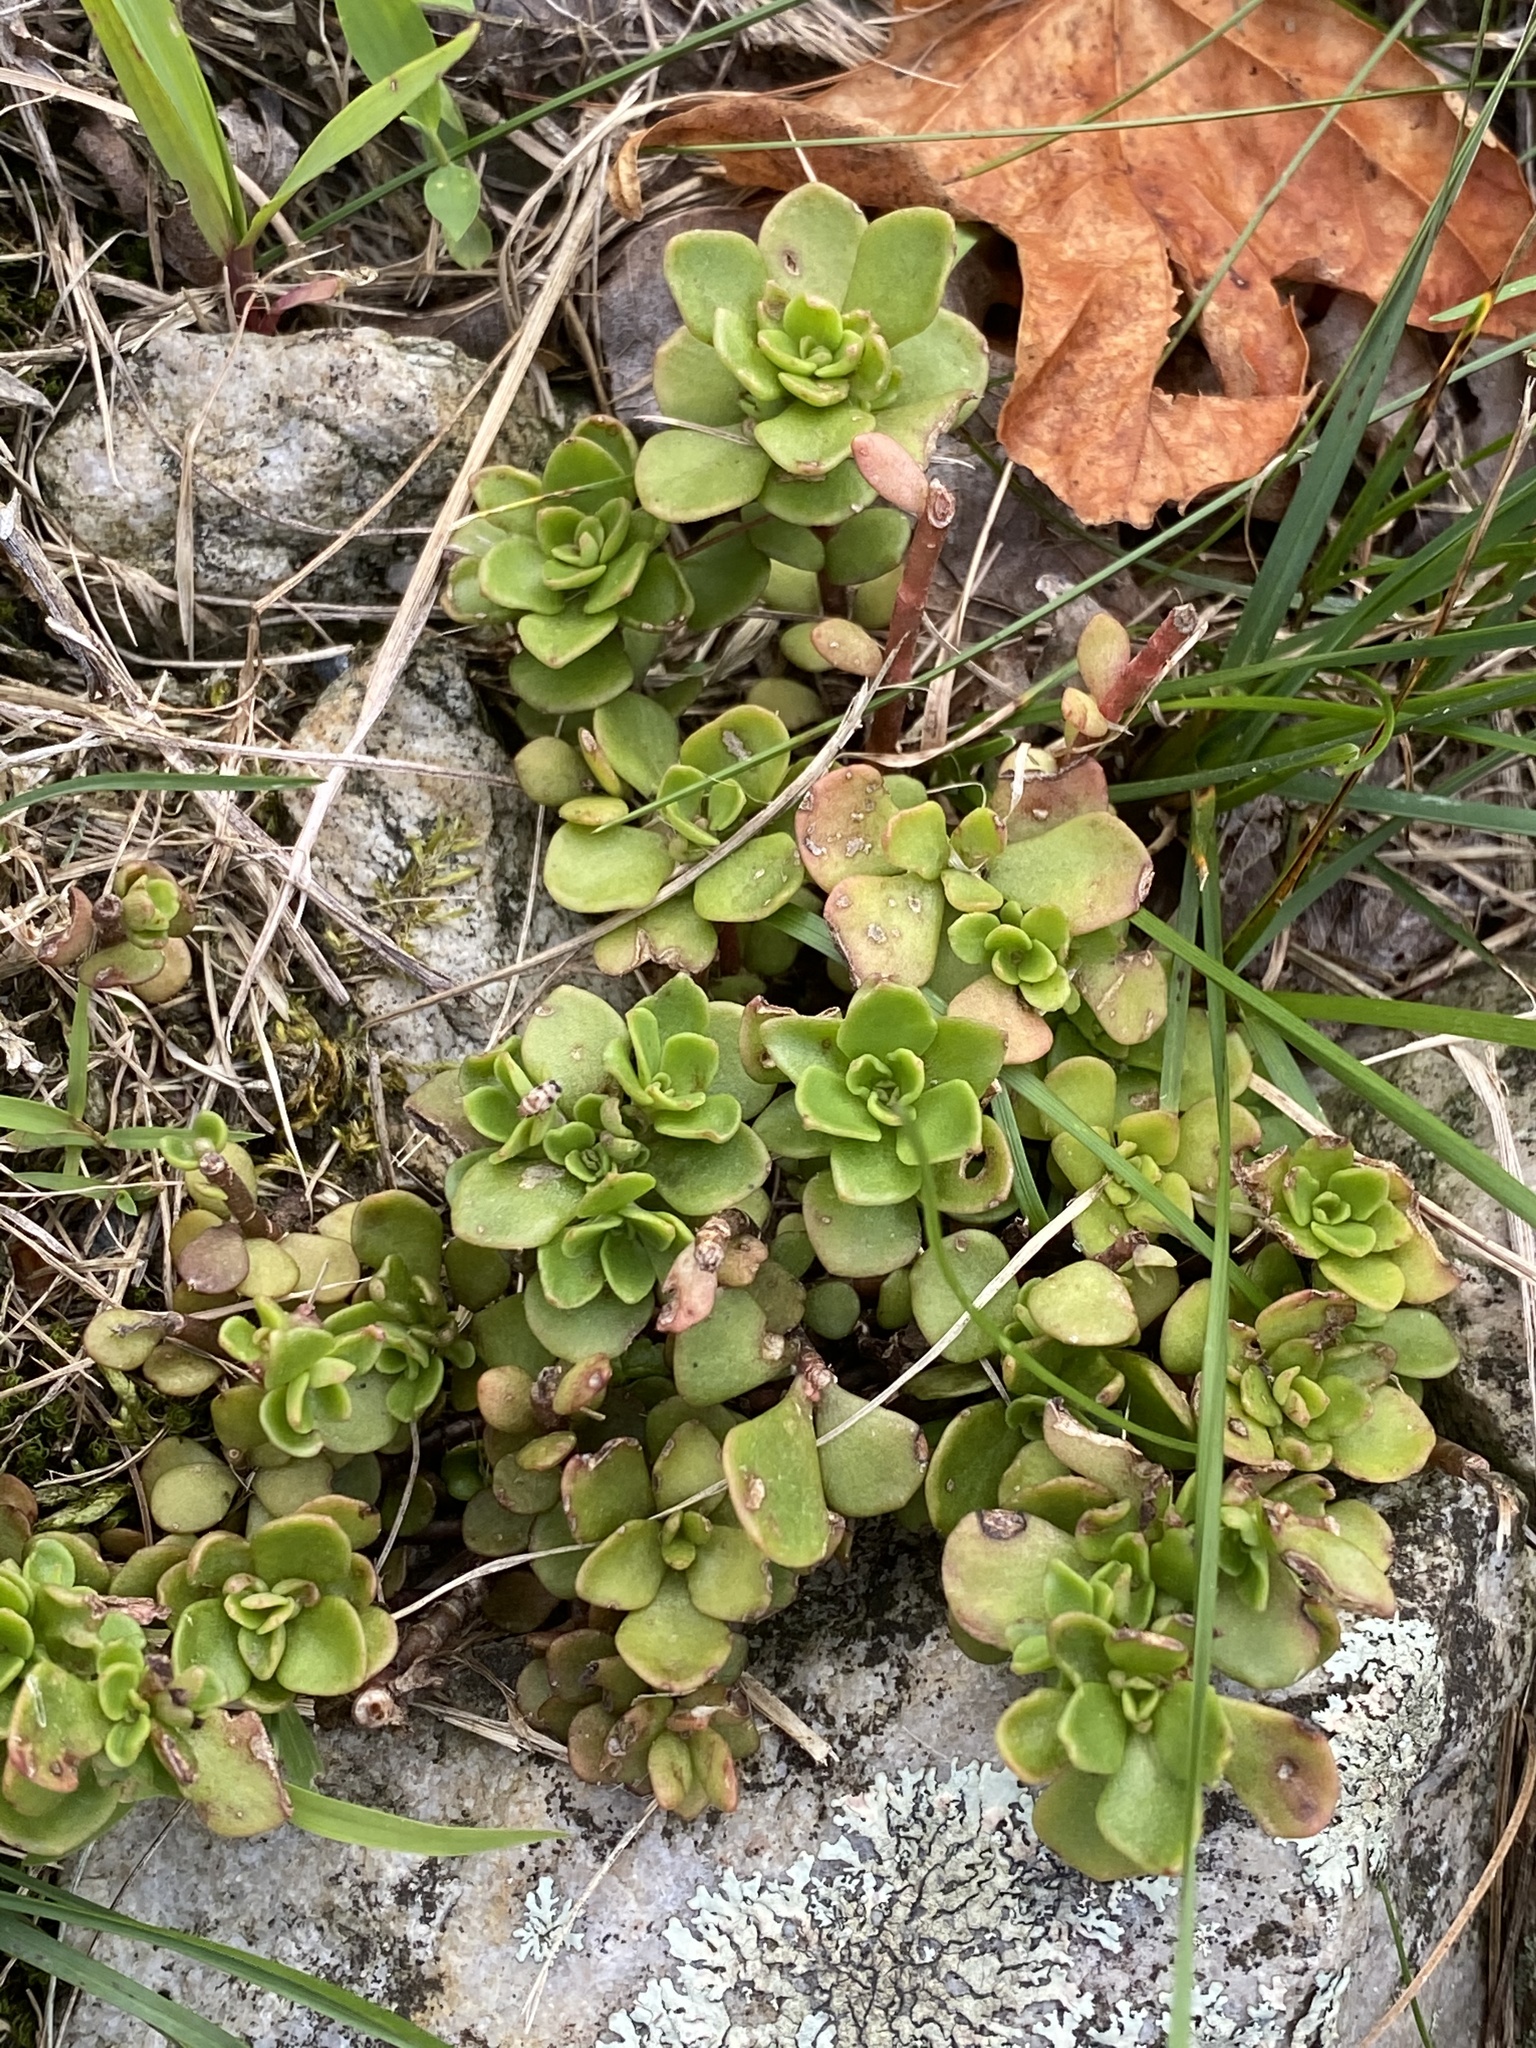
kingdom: Plantae
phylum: Tracheophyta
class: Magnoliopsida
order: Saxifragales
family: Crassulaceae
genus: Sedum
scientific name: Sedum ternatum
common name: Wild stonecrop
